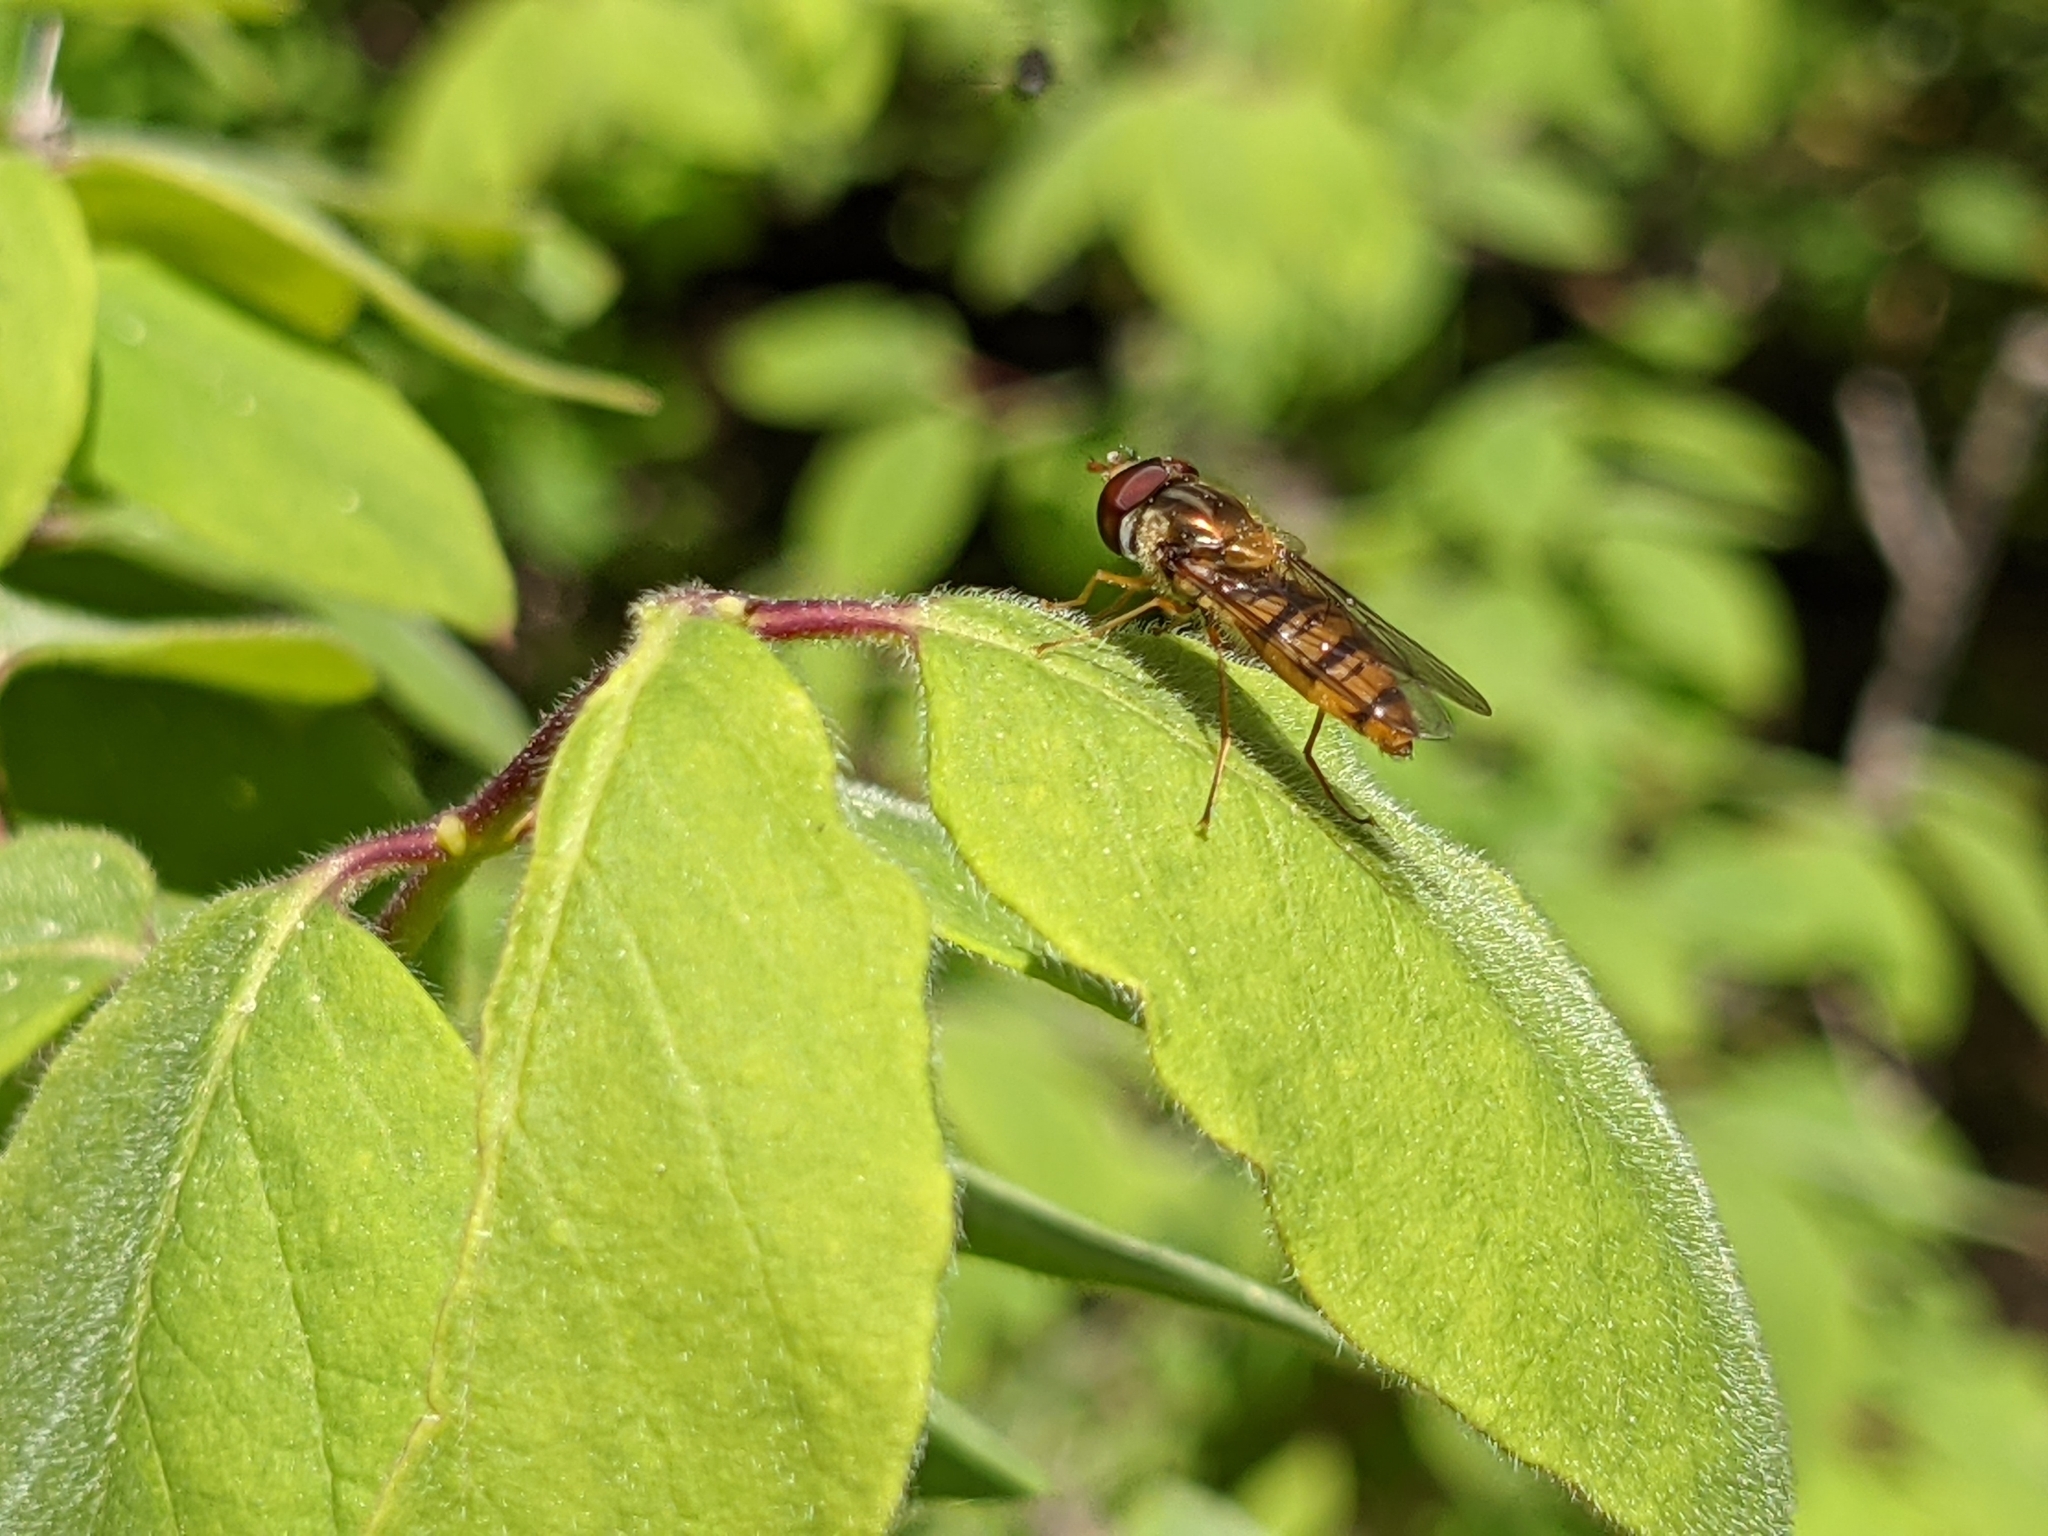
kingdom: Animalia
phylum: Arthropoda
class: Insecta
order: Diptera
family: Syrphidae
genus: Episyrphus
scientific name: Episyrphus balteatus
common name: Marmalade hoverfly
